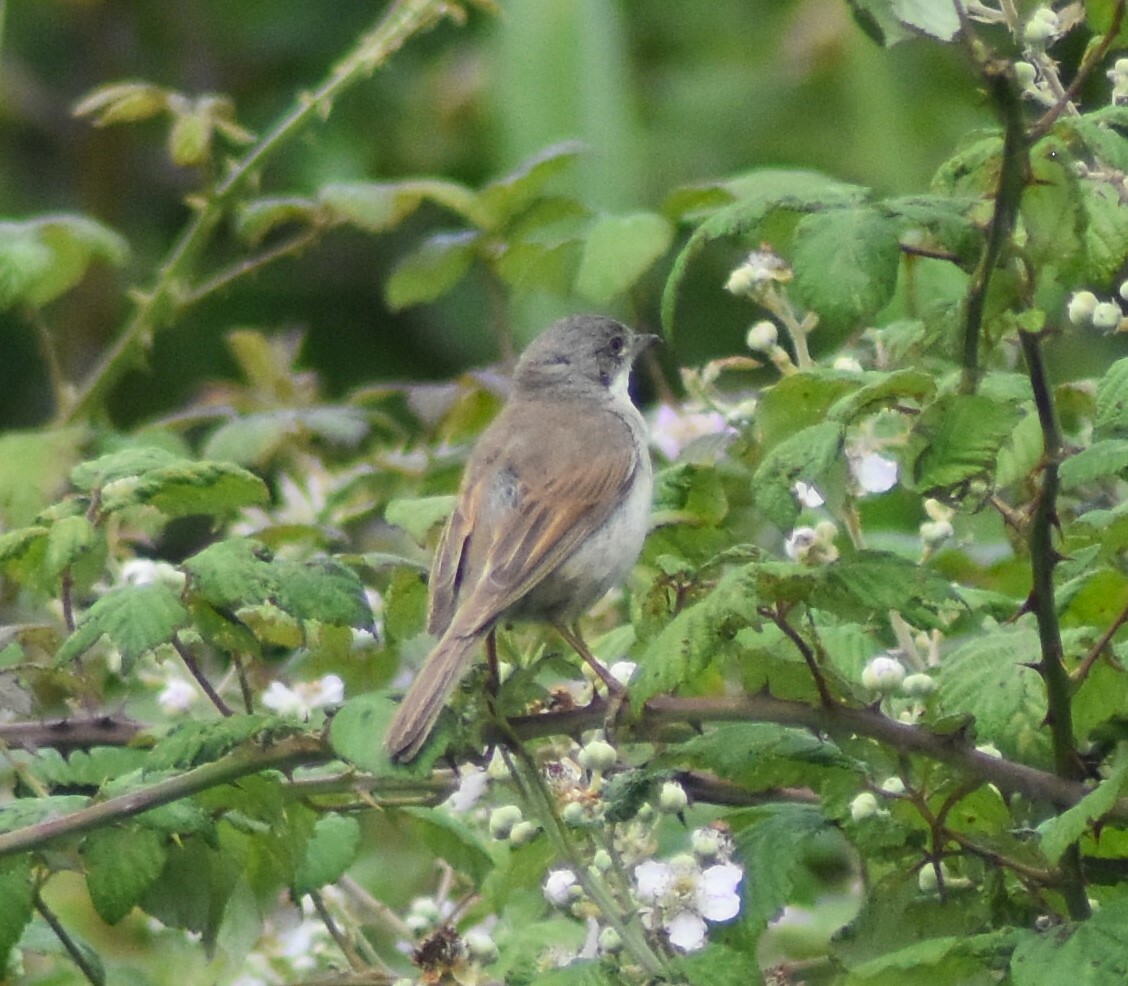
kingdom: Animalia
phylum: Chordata
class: Aves
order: Passeriformes
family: Sylviidae
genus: Sylvia
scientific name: Sylvia communis
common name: Common whitethroat
